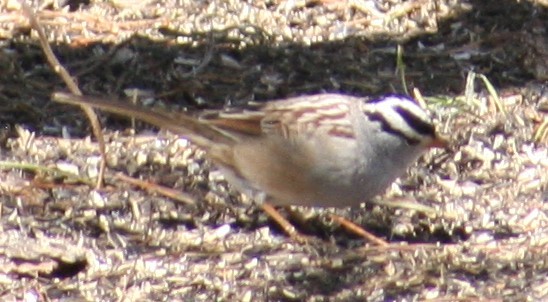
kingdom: Animalia
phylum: Chordata
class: Aves
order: Passeriformes
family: Passerellidae
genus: Zonotrichia
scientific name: Zonotrichia leucophrys
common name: White-crowned sparrow
